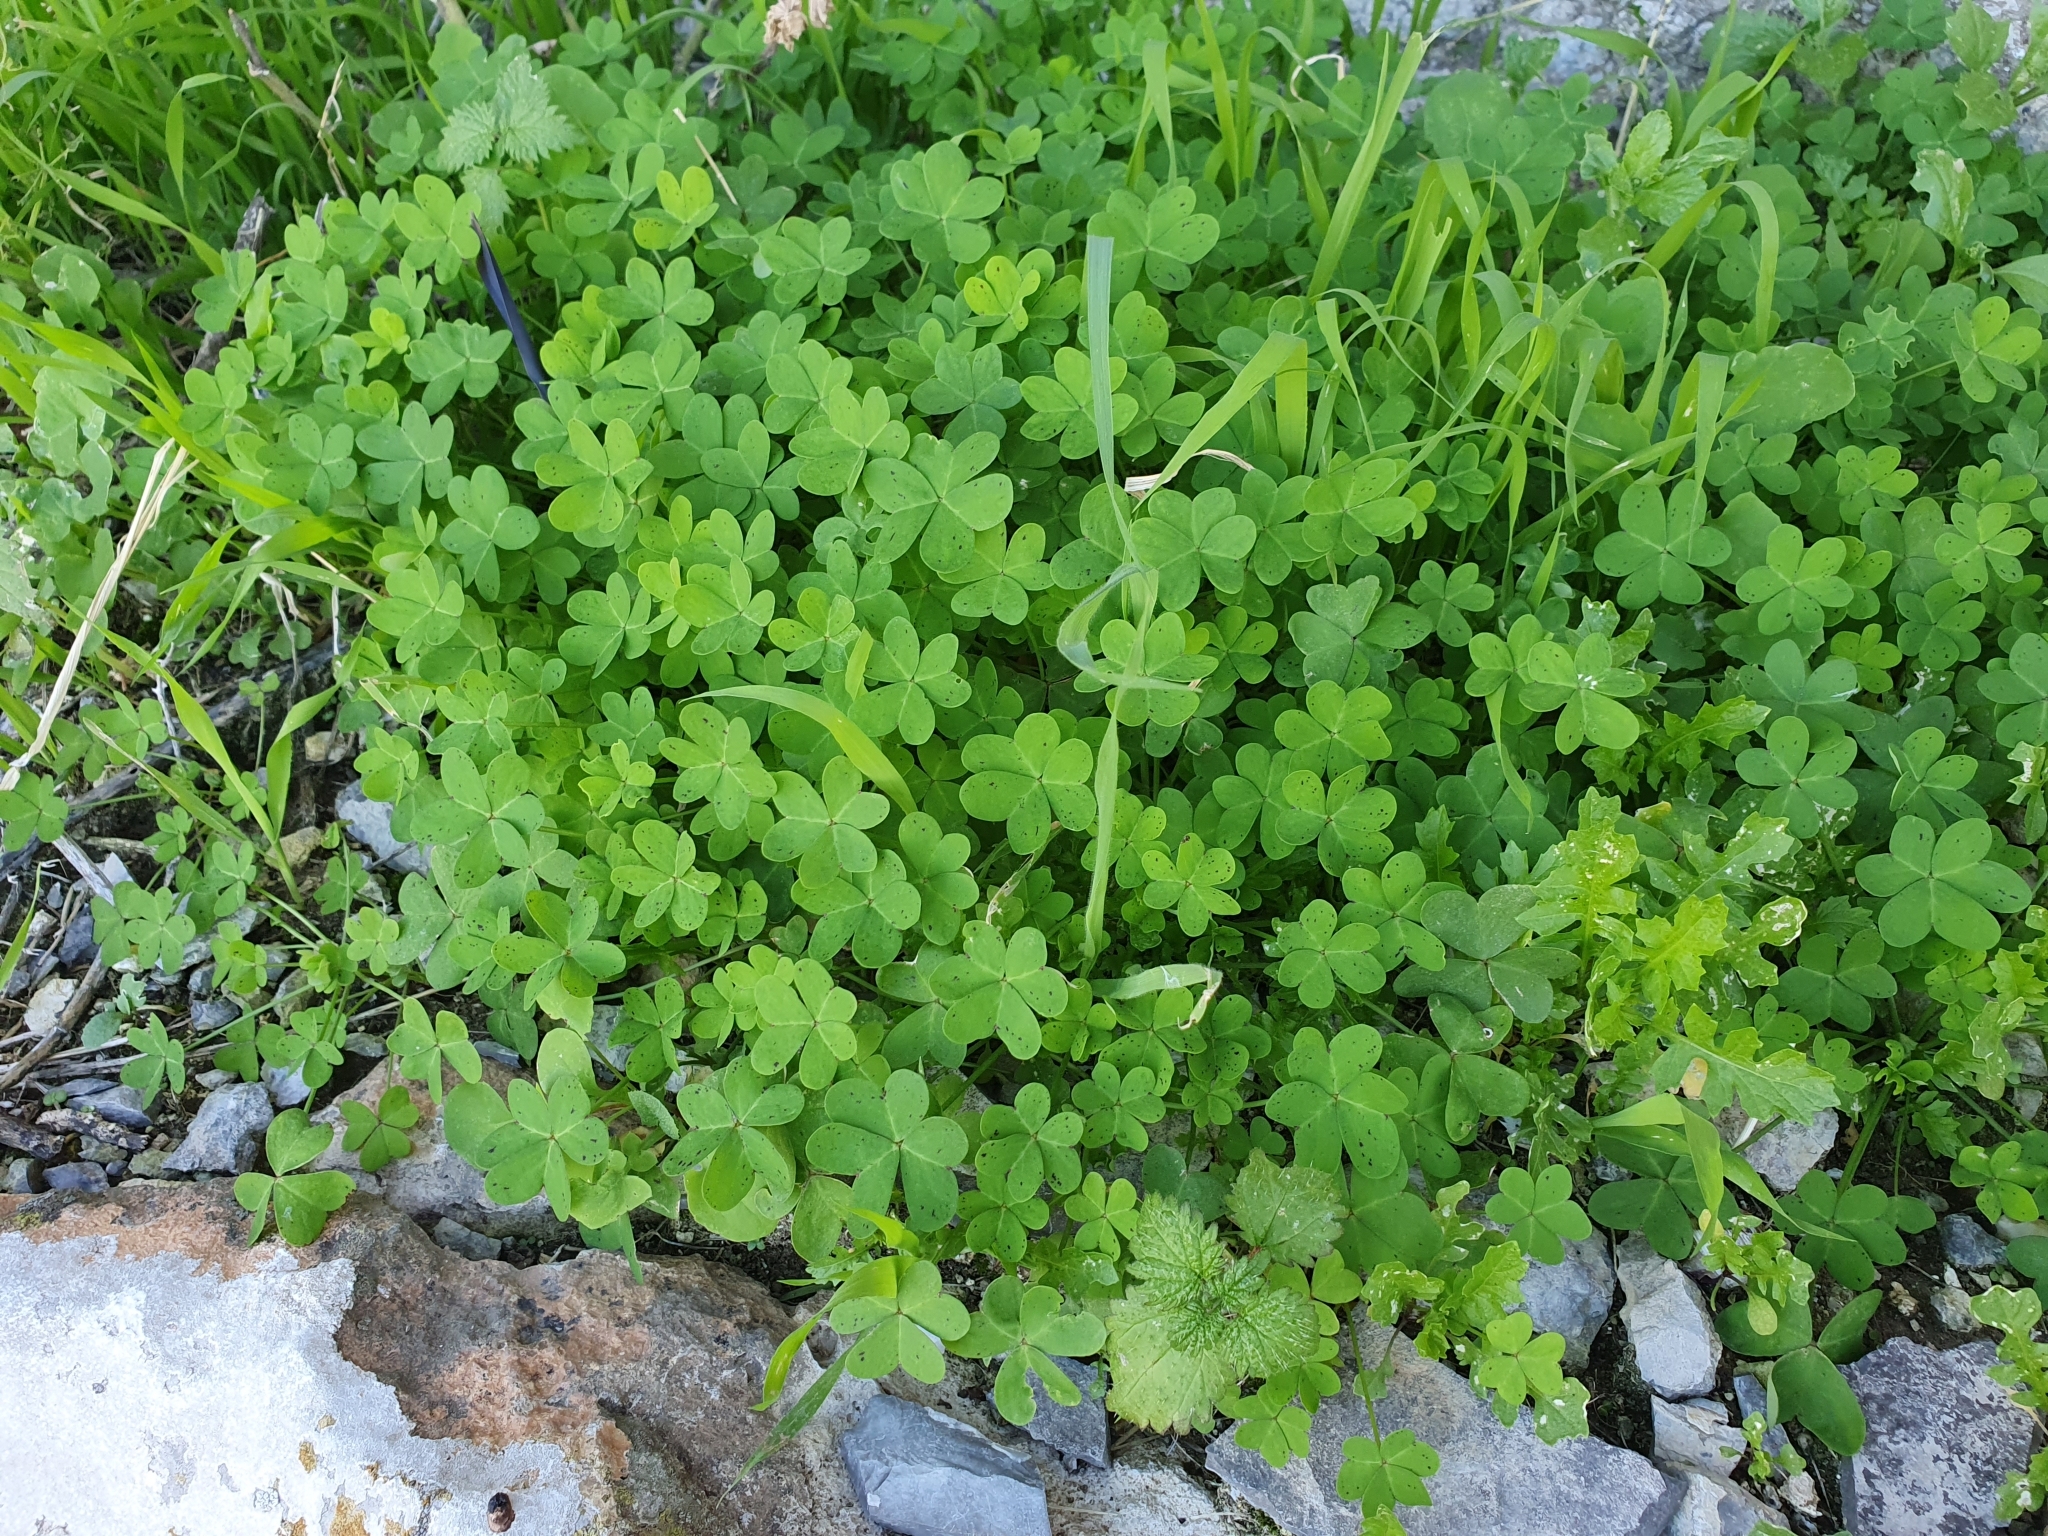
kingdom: Plantae
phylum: Tracheophyta
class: Magnoliopsida
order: Oxalidales
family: Oxalidaceae
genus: Oxalis
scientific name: Oxalis pes-caprae
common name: Bermuda-buttercup
